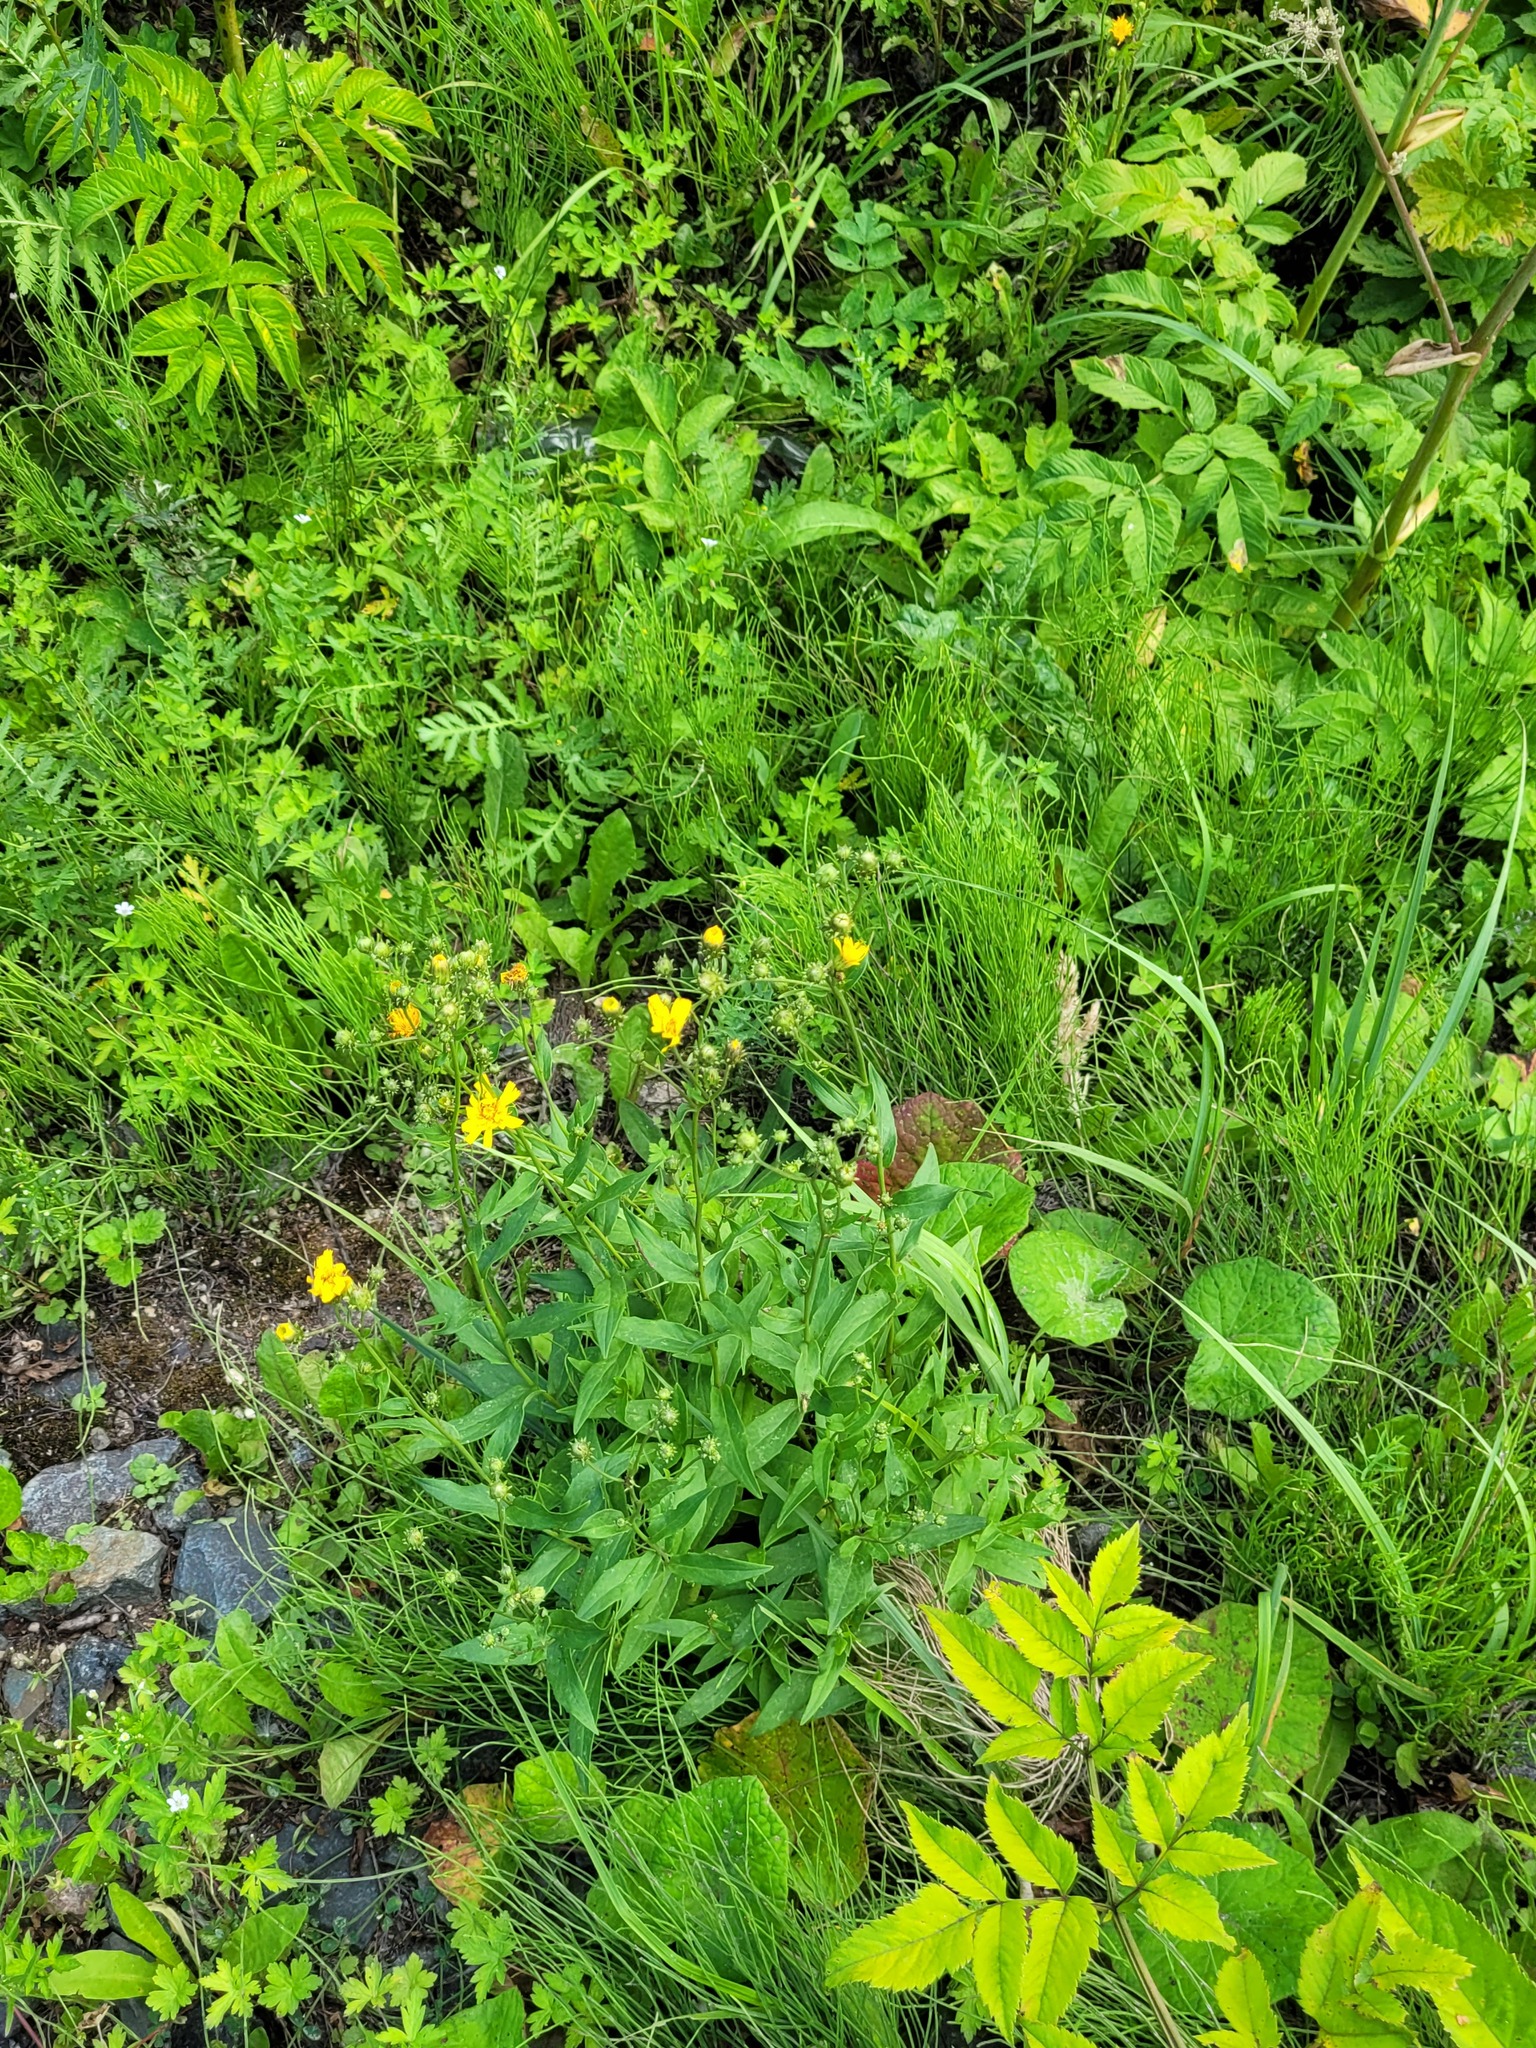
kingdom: Plantae
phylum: Tracheophyta
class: Magnoliopsida
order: Asterales
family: Asteraceae
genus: Hieracium
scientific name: Hieracium umbellatum
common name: Northern hawkweed
